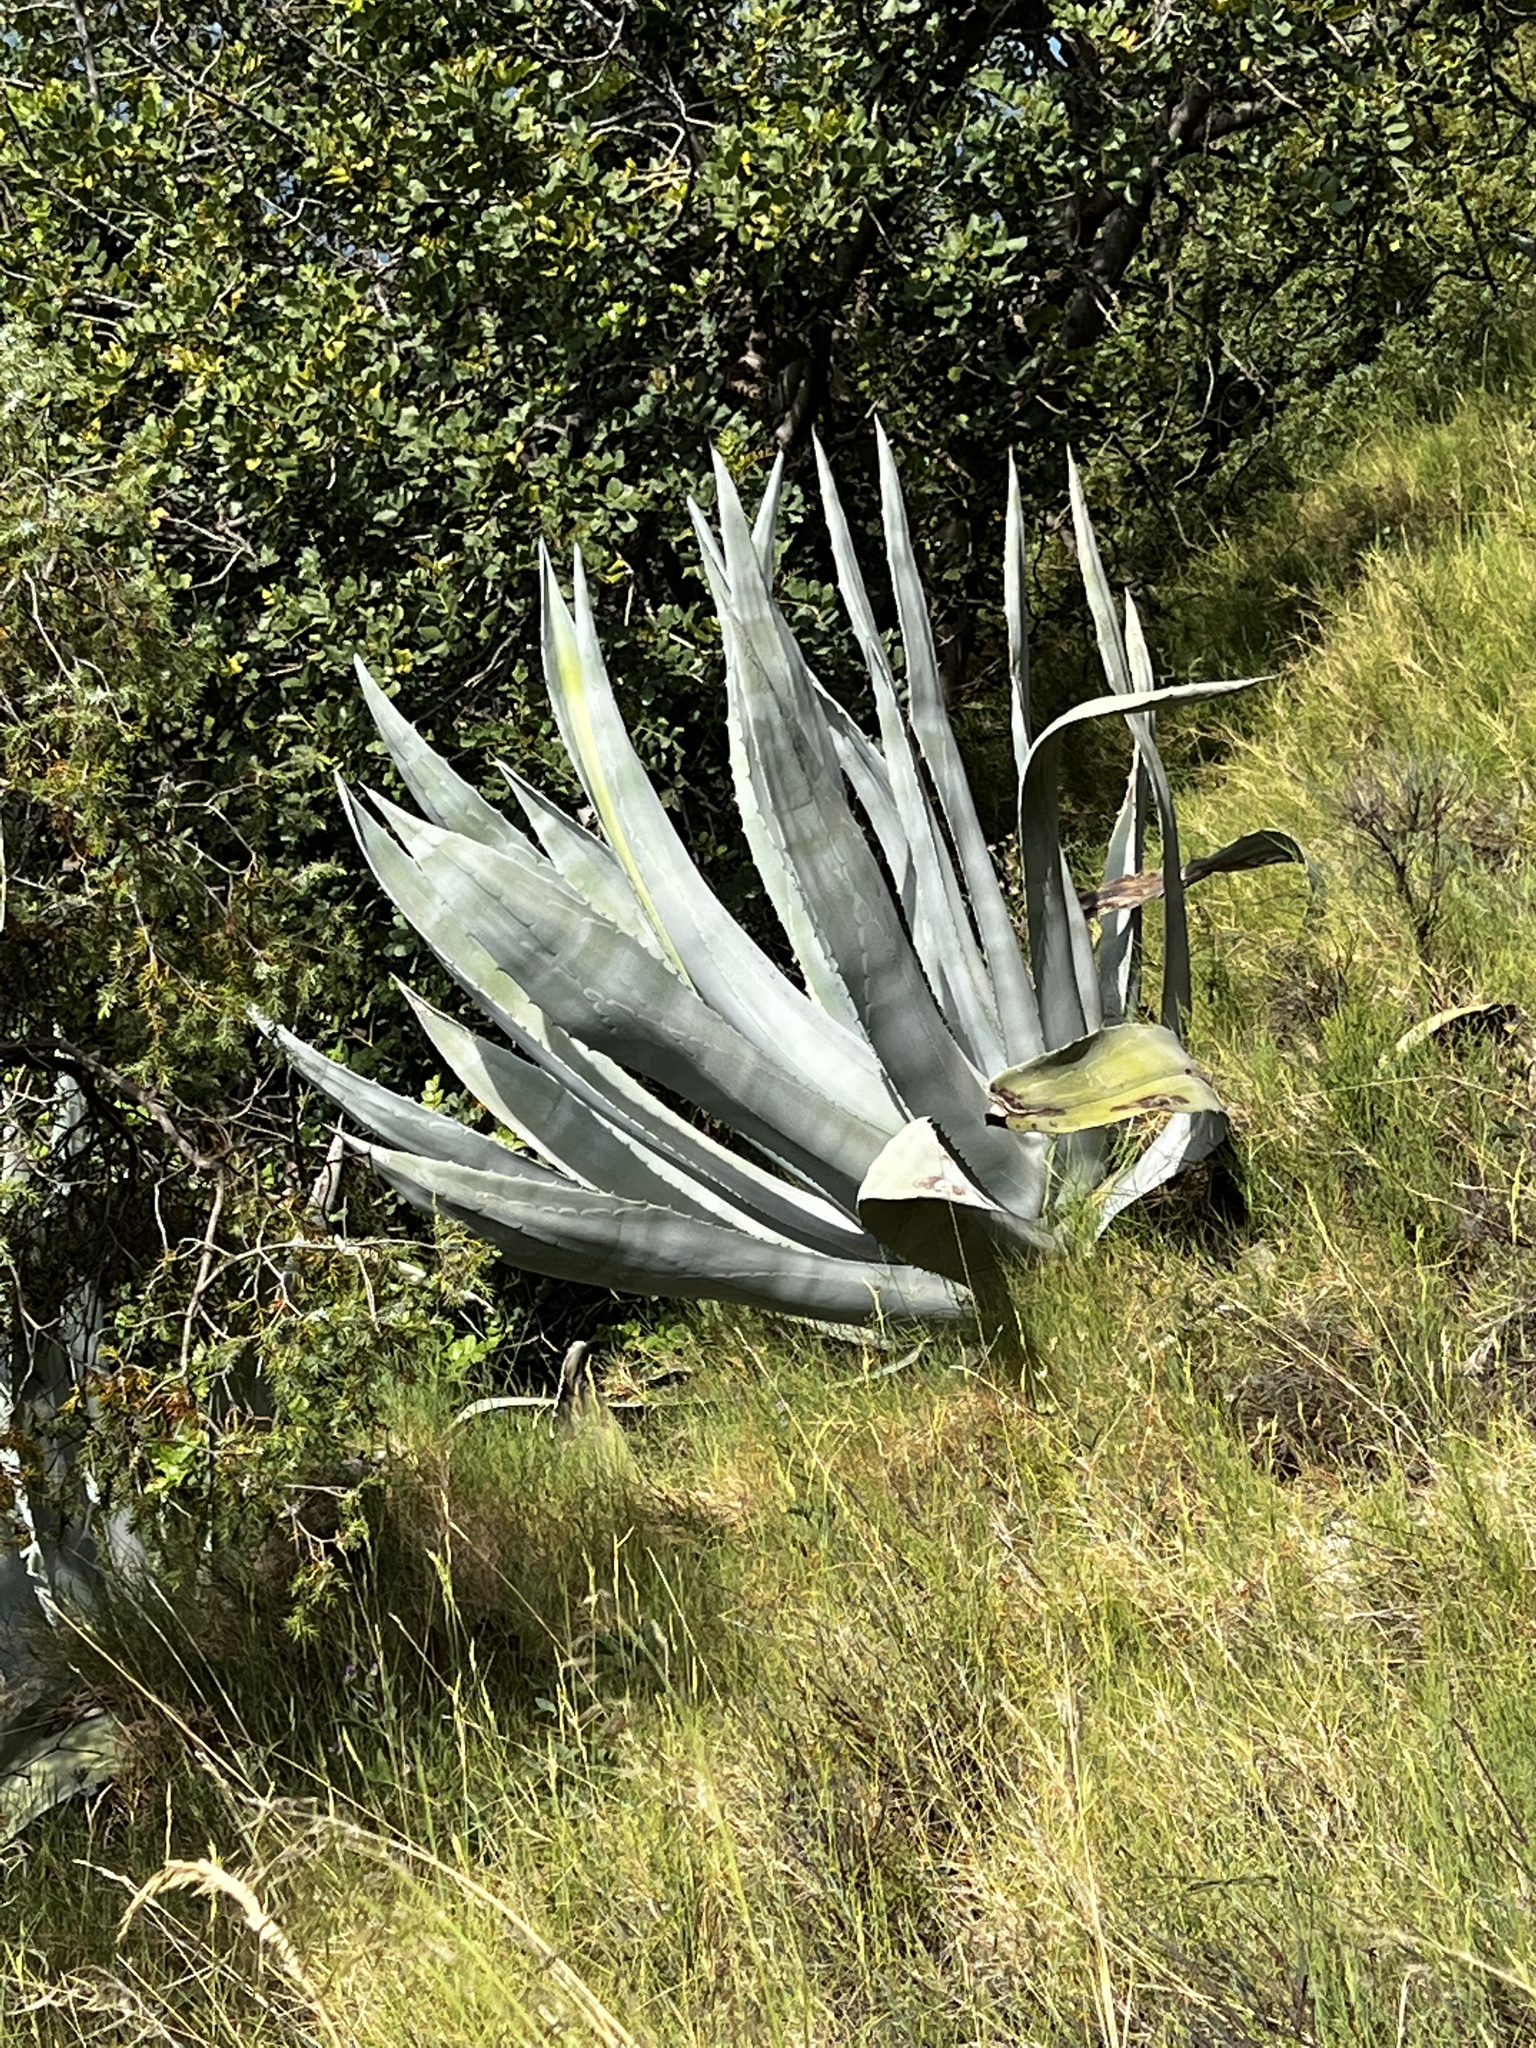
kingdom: Plantae
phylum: Tracheophyta
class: Liliopsida
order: Asparagales
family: Asparagaceae
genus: Agave
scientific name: Agave americana
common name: Centuryplant
